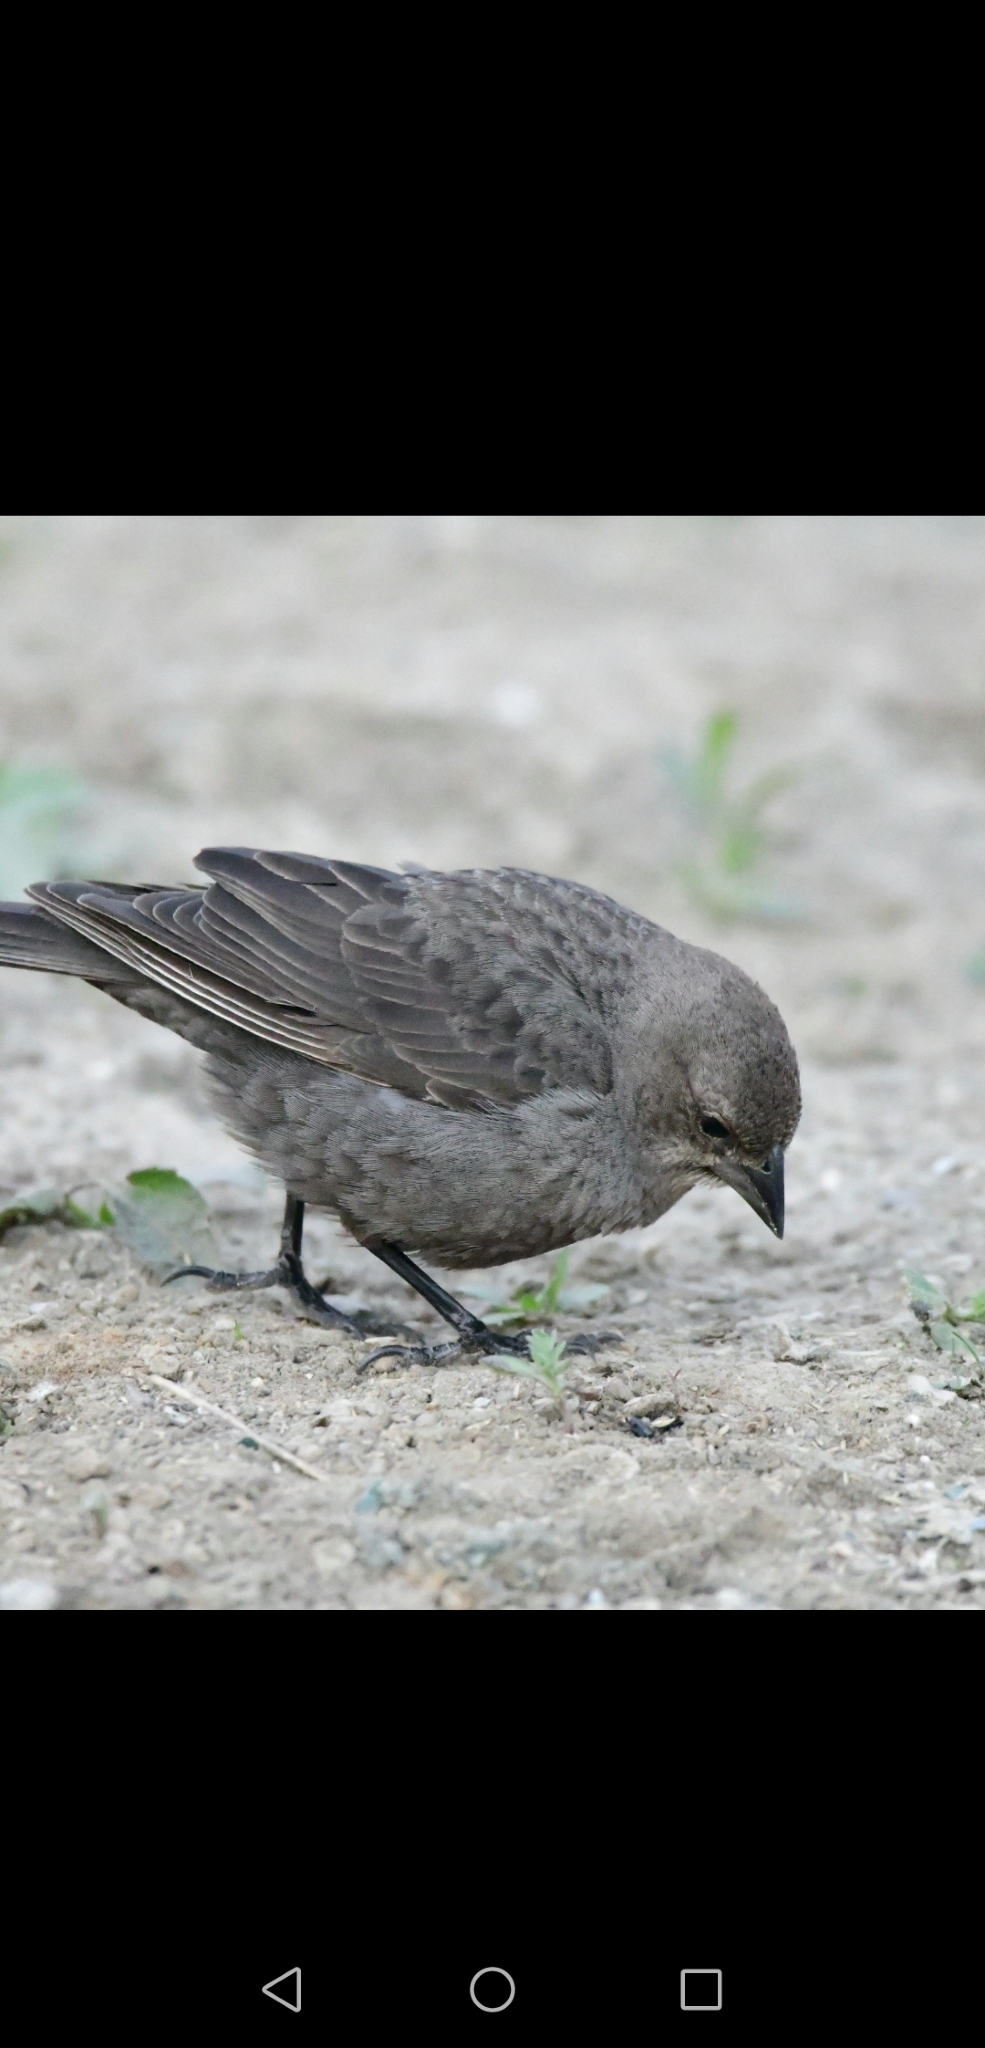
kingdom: Animalia
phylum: Chordata
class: Aves
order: Passeriformes
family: Icteridae
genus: Molothrus
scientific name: Molothrus ater
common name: Brown-headed cowbird
